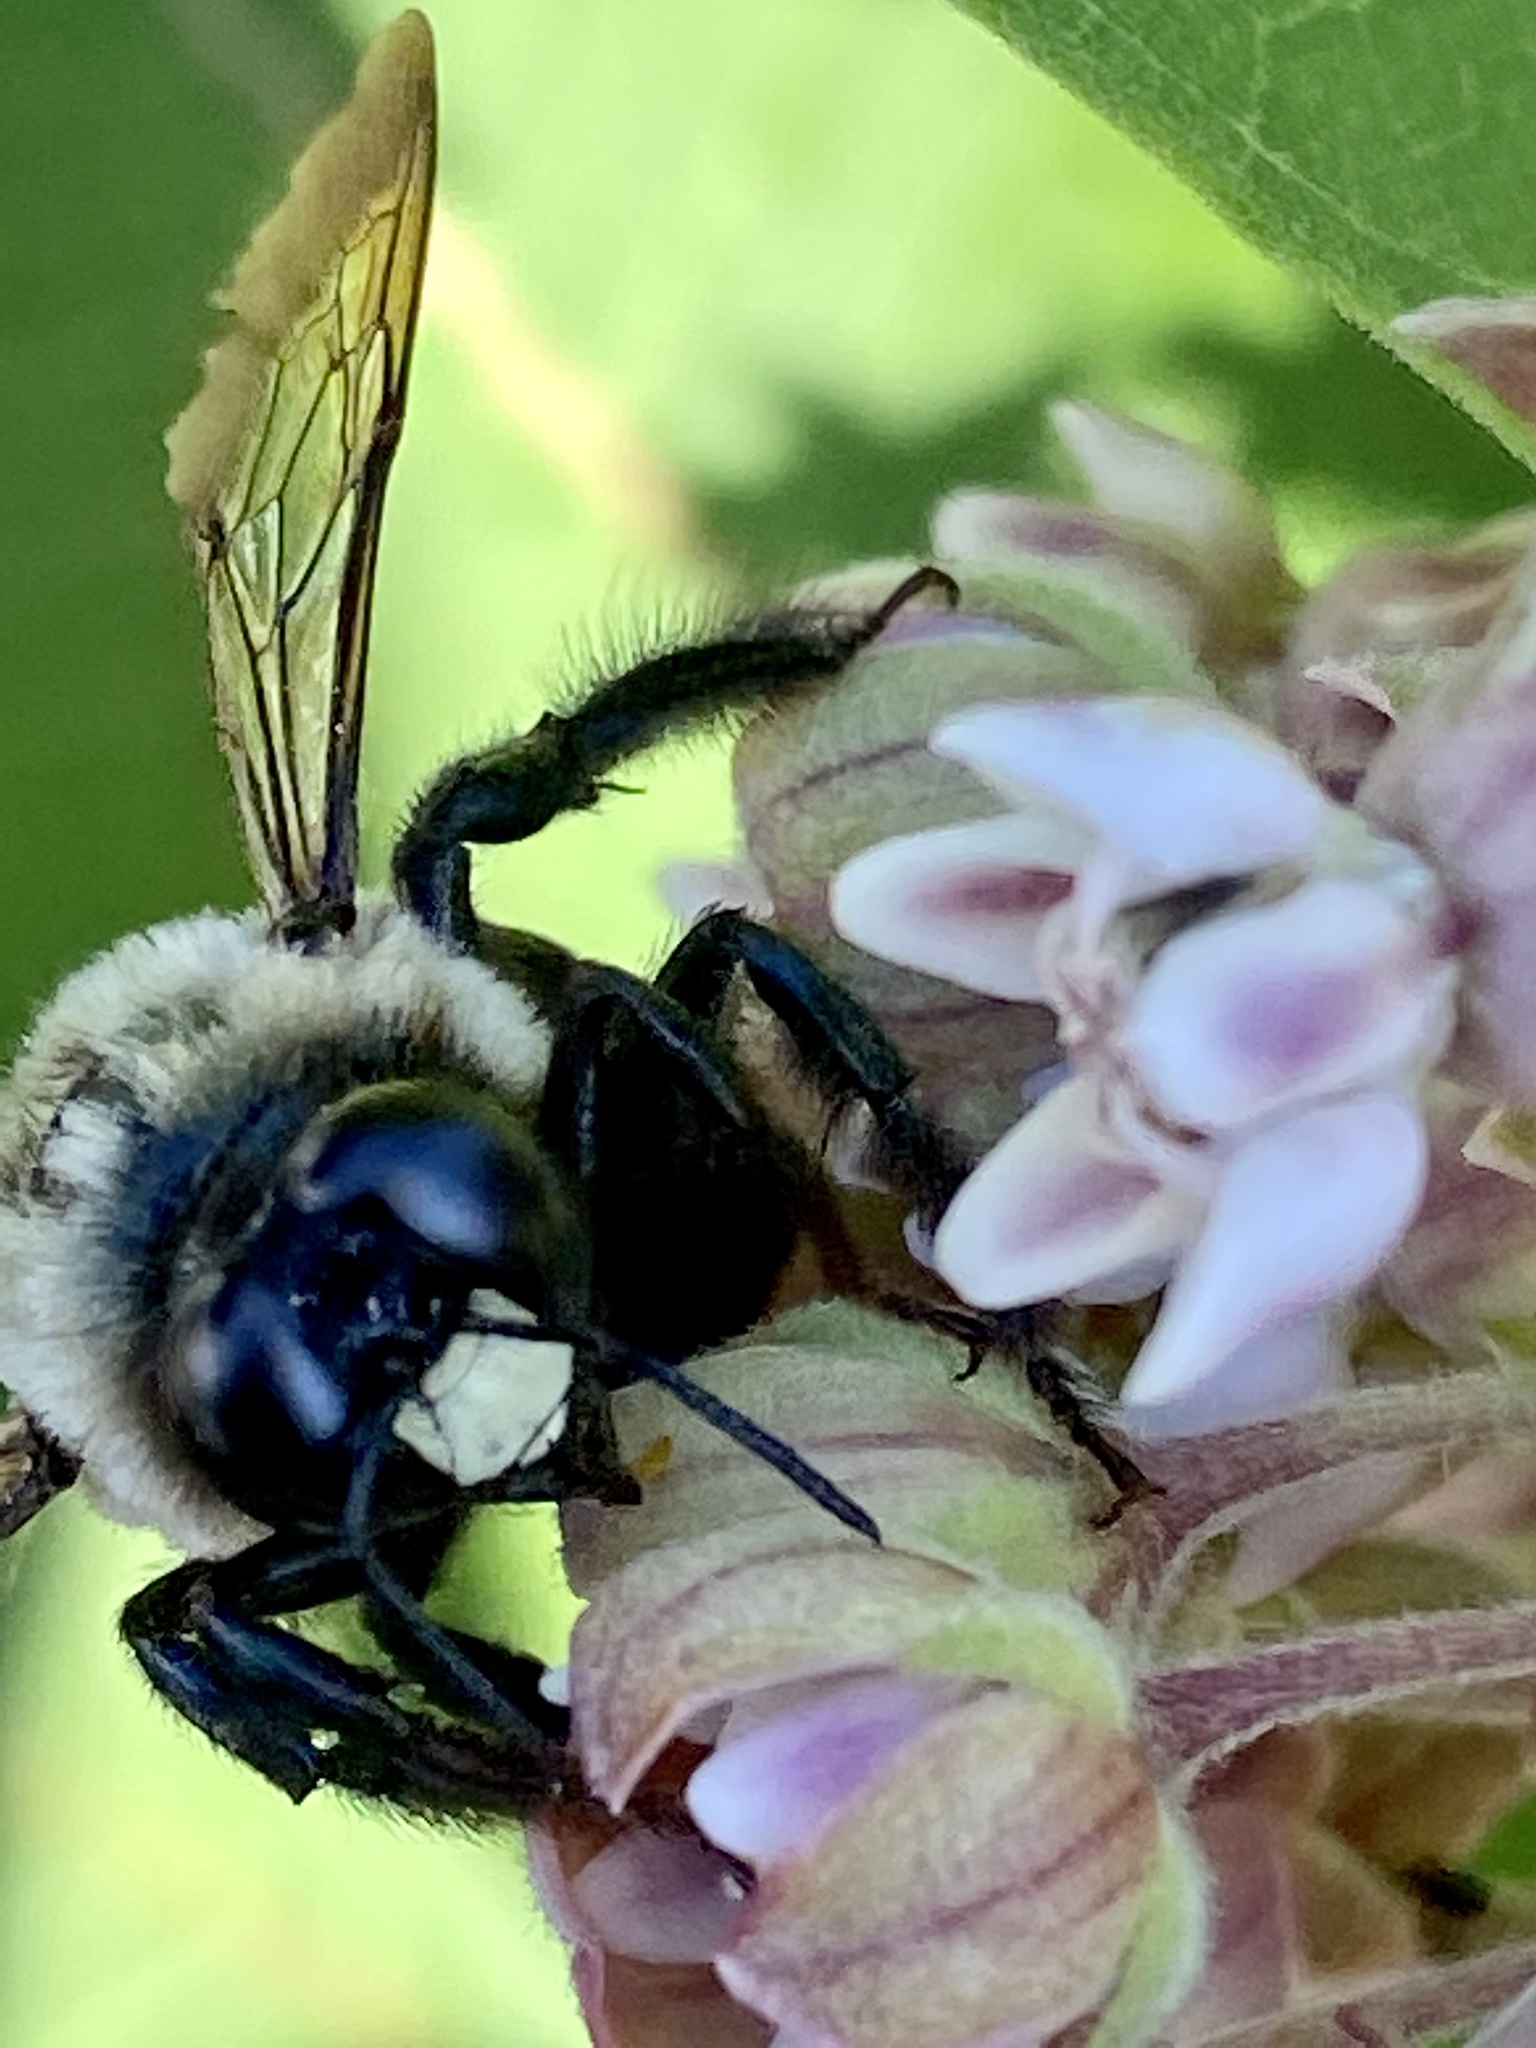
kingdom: Animalia
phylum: Arthropoda
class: Insecta
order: Hymenoptera
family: Apidae
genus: Xylocopa
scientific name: Xylocopa virginica
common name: Carpenter bee
